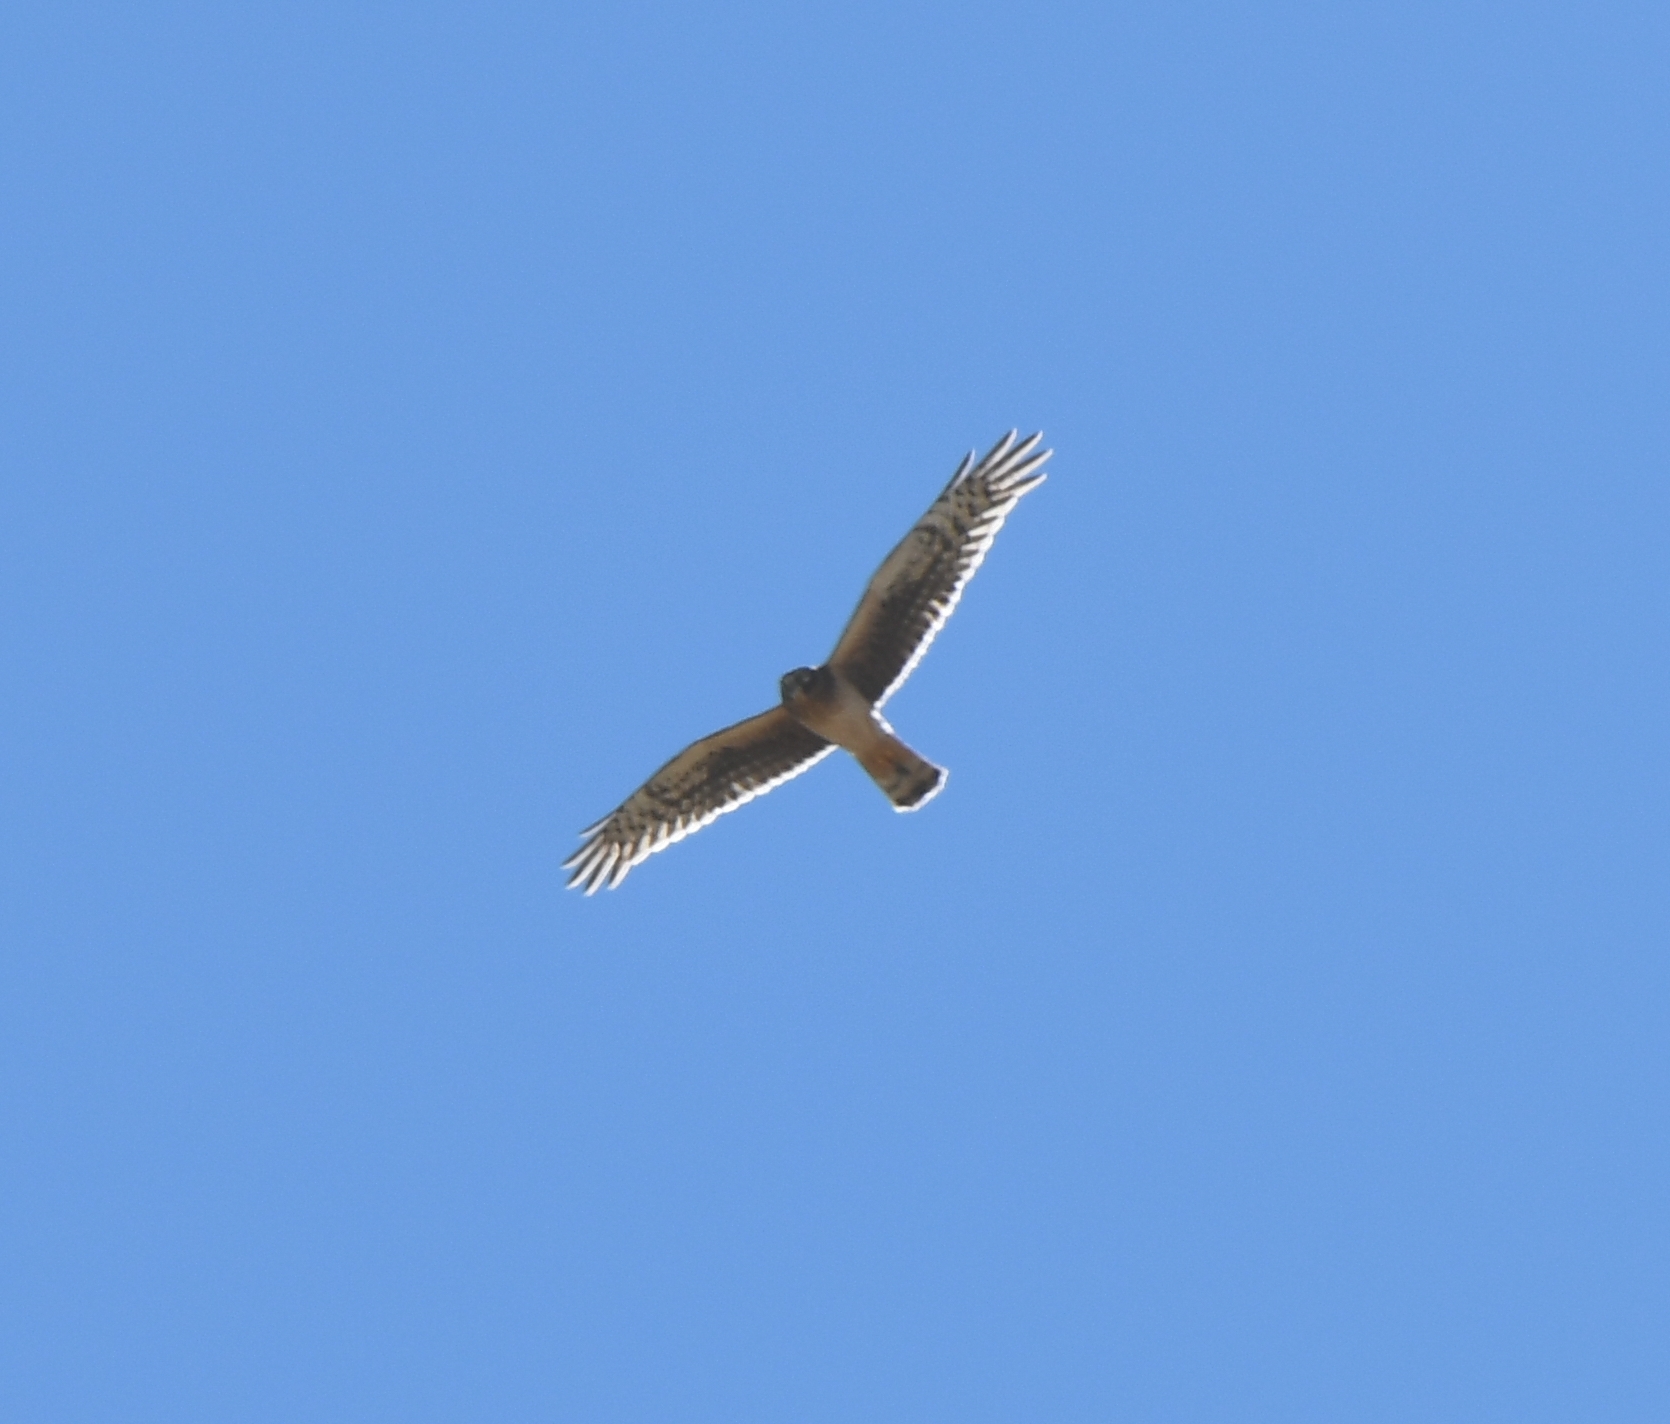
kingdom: Animalia
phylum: Chordata
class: Aves
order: Accipitriformes
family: Accipitridae
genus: Circus
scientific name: Circus cyaneus
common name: Hen harrier
